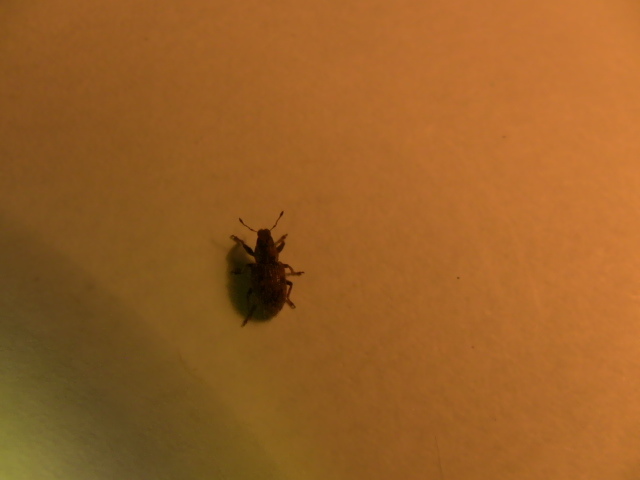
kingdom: Animalia
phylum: Arthropoda
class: Insecta
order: Coleoptera
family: Curculionidae
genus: Sitona
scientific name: Sitona obsoletus
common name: Weevil
